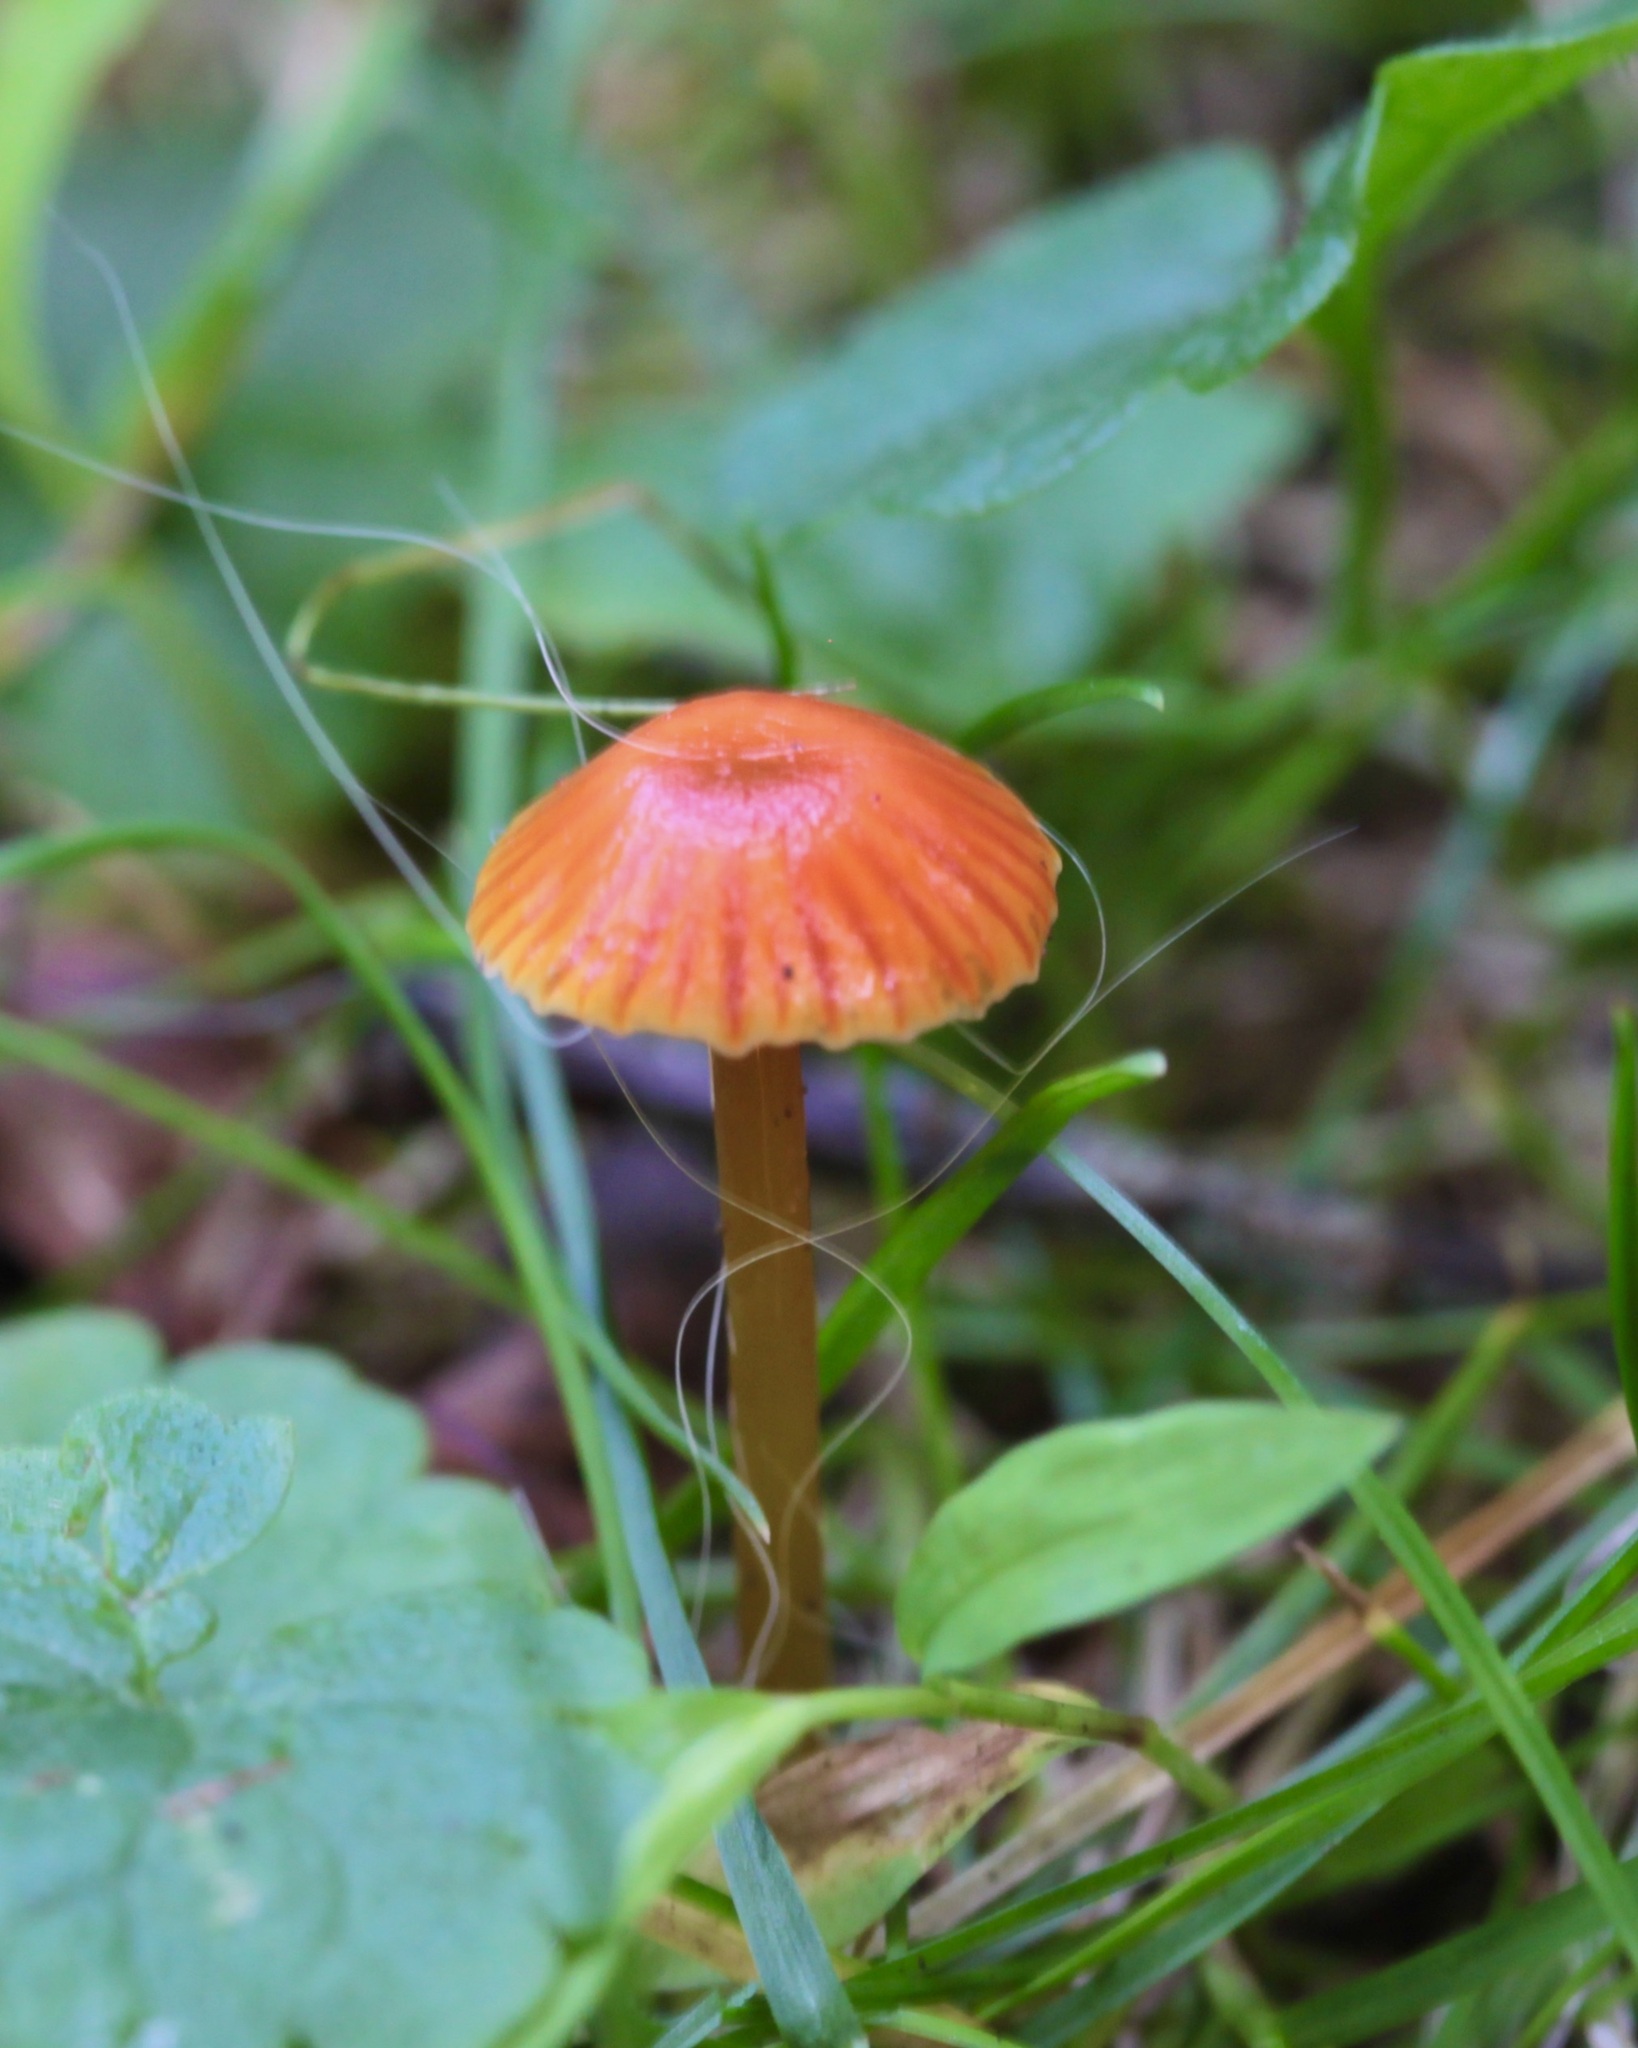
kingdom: Fungi
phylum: Basidiomycota
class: Agaricomycetes
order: Agaricales
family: Hygrophoraceae
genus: Hygrocybe
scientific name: Hygrocybe minutula
